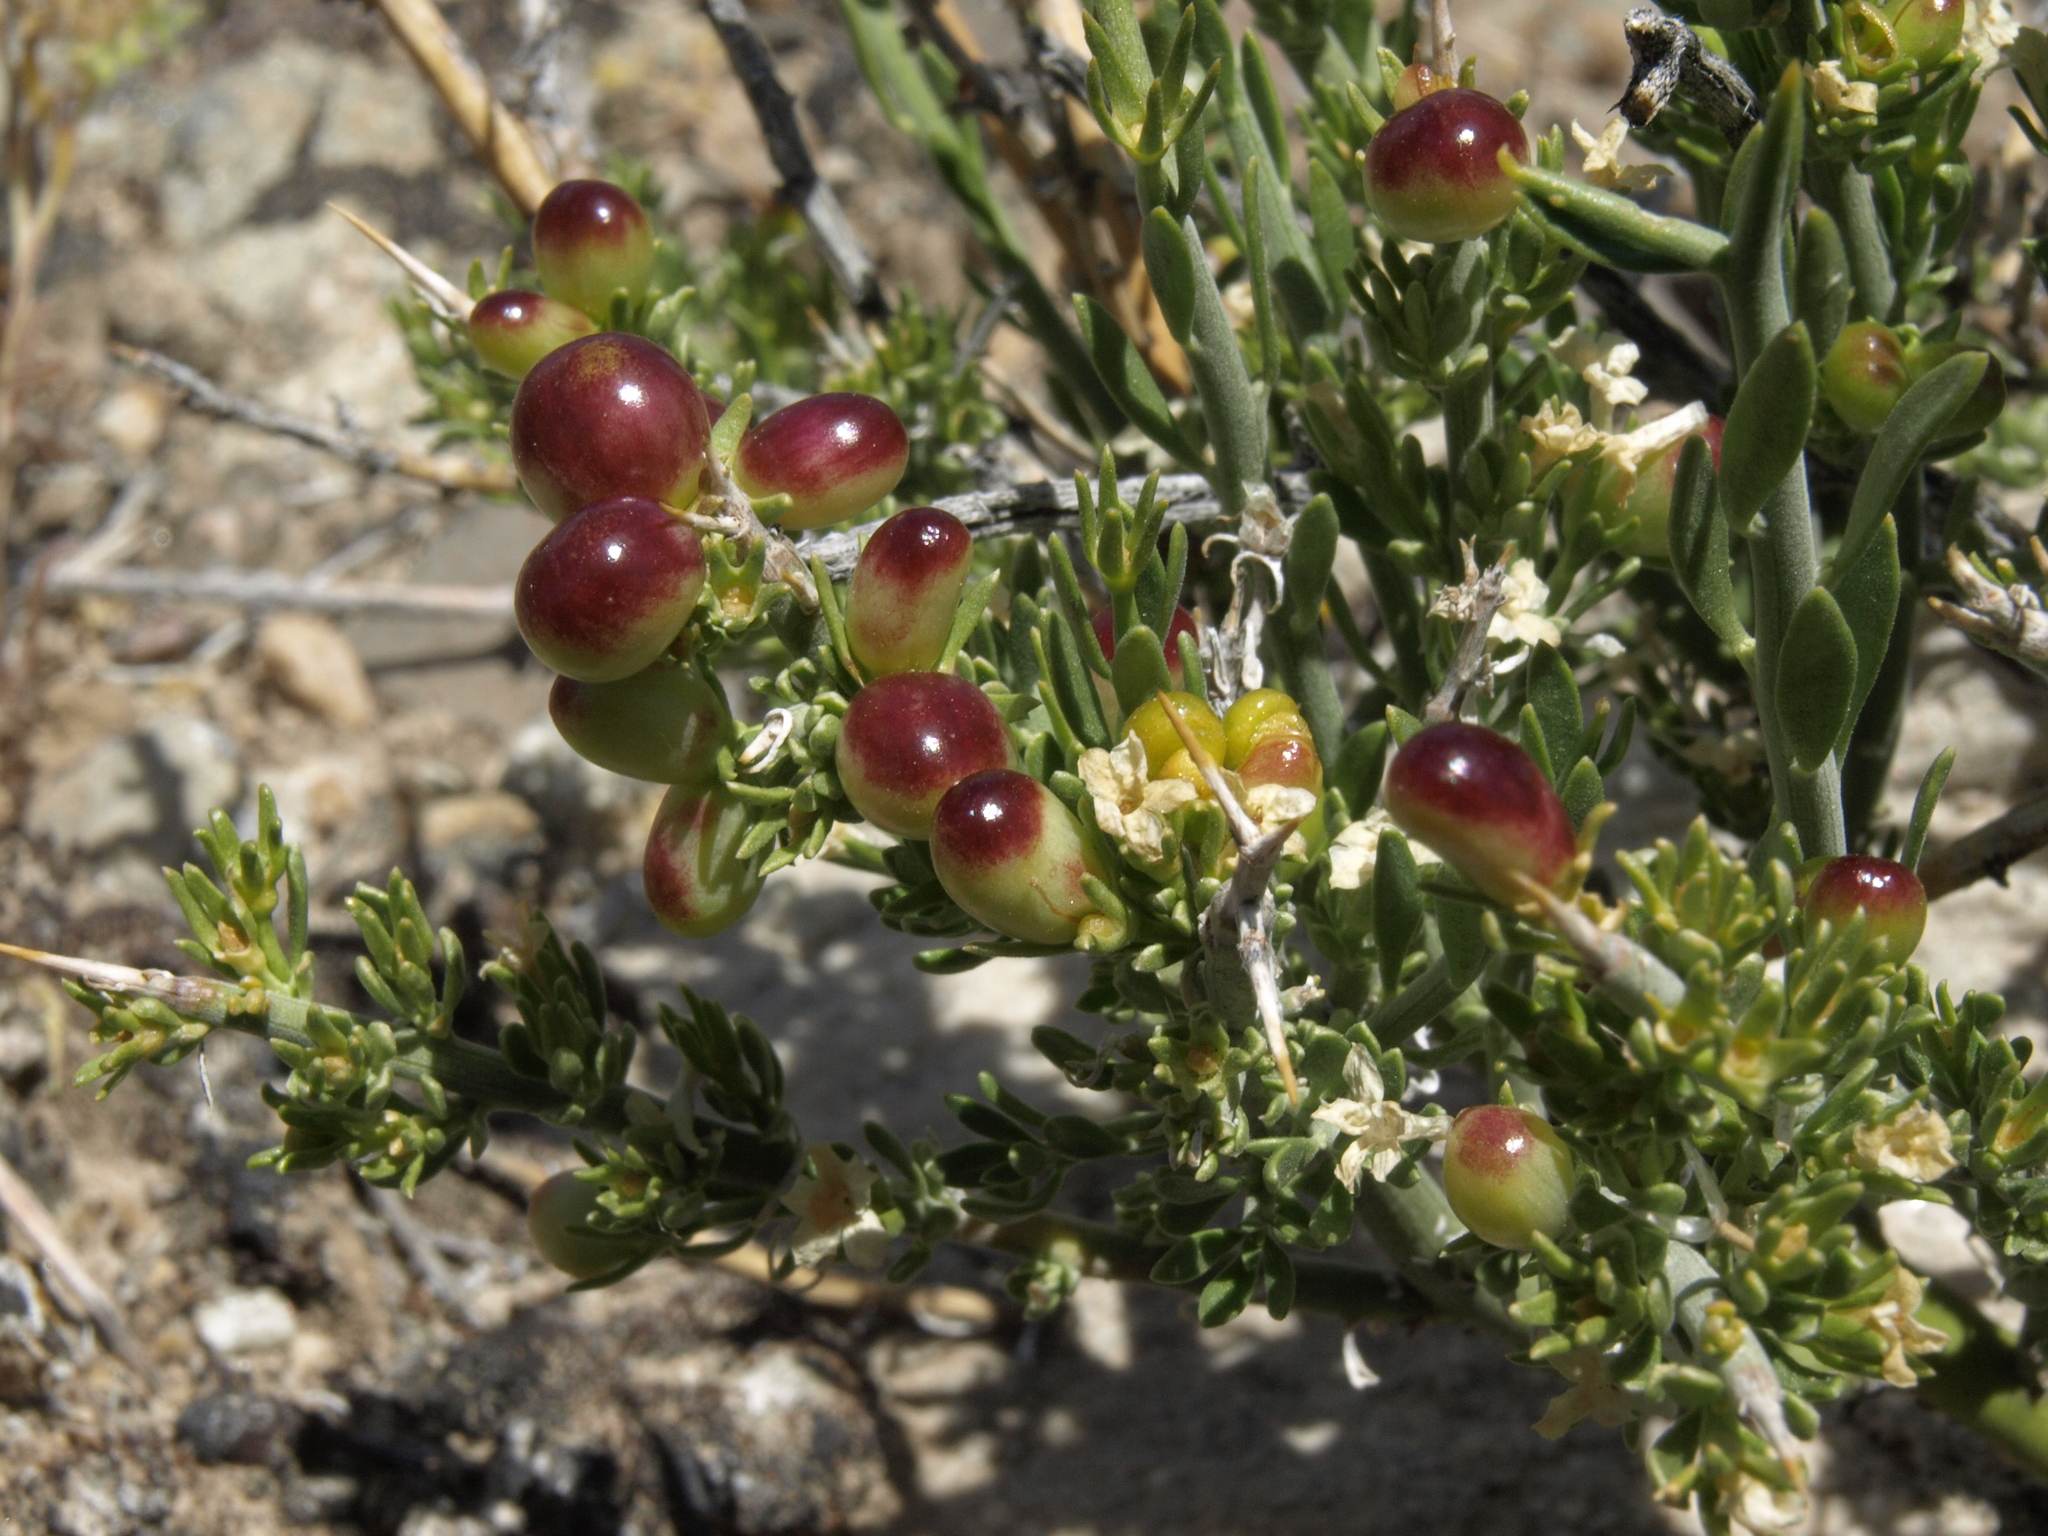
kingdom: Plantae
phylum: Tracheophyta
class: Magnoliopsida
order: Lamiales
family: Oleaceae
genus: Menodora
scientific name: Menodora spinescens
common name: Spiny menodora
